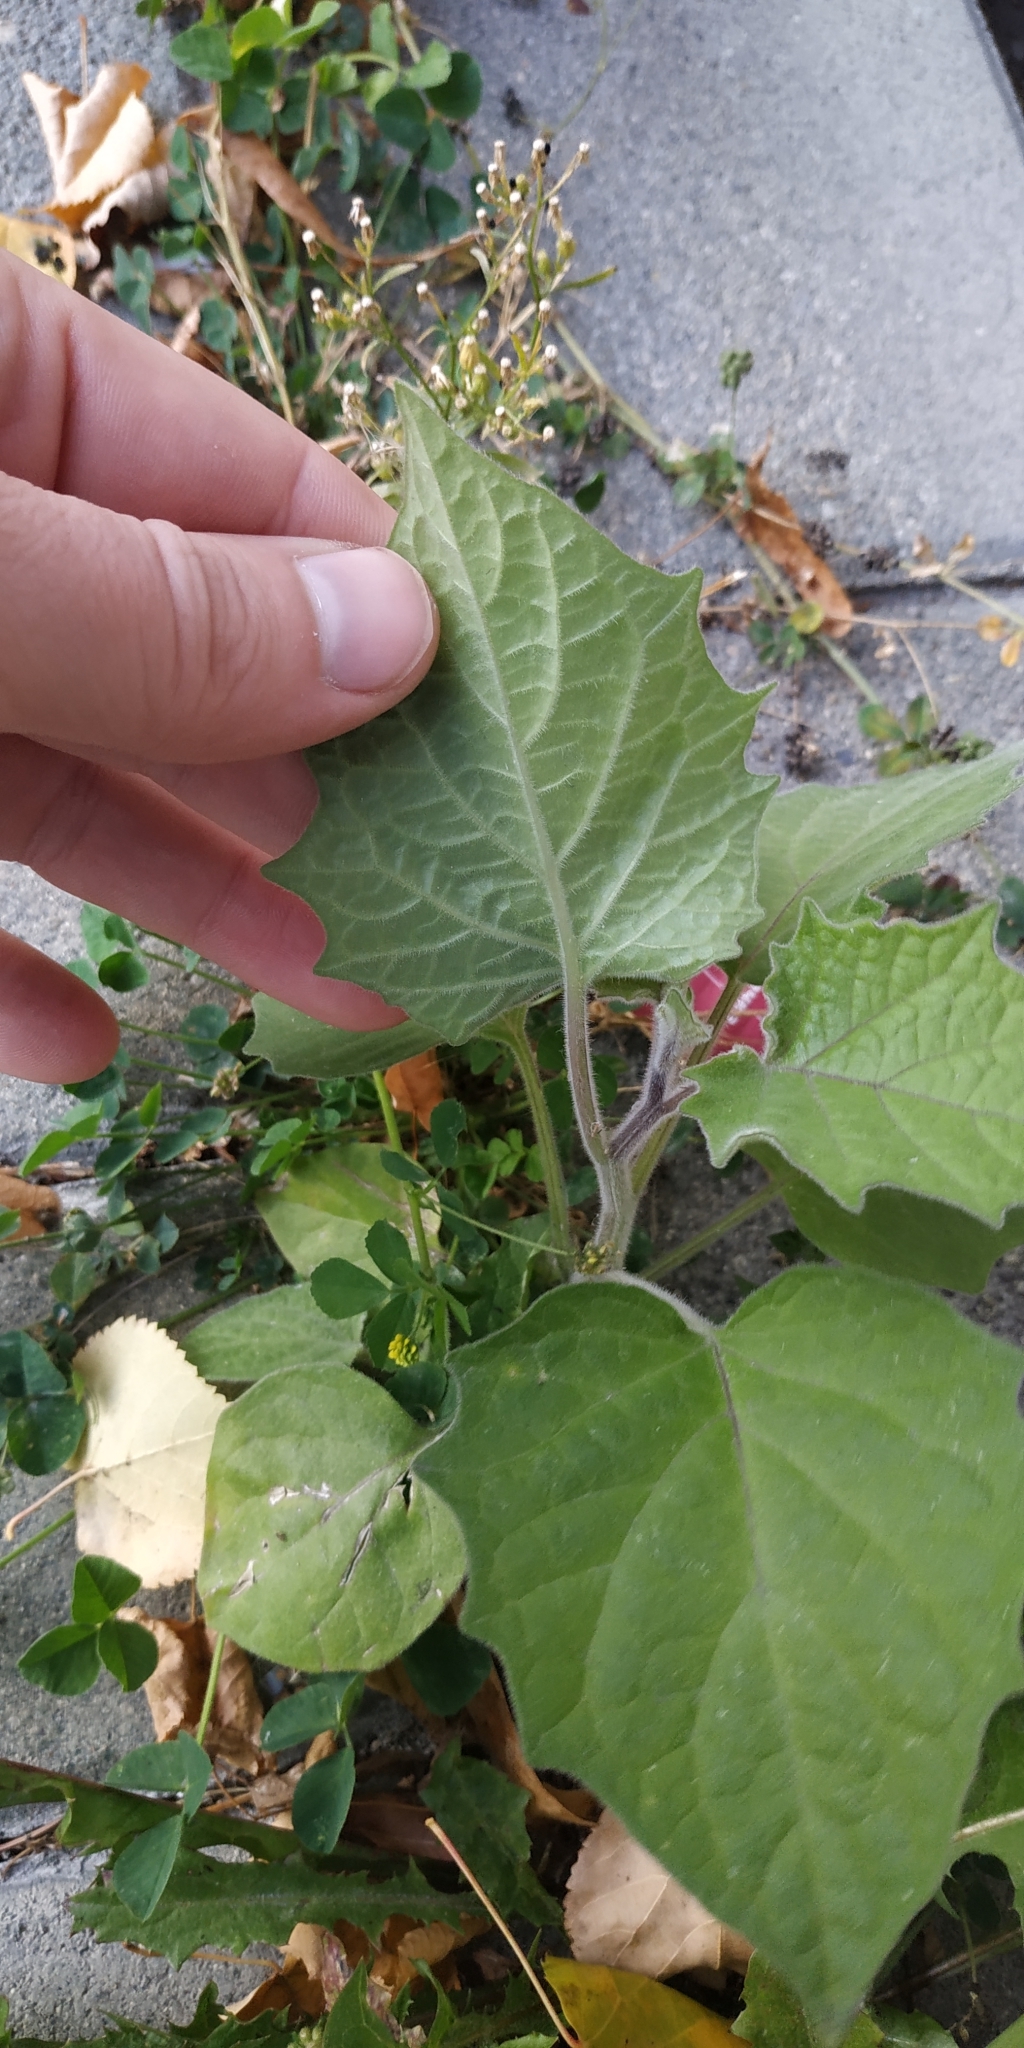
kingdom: Plantae
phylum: Tracheophyta
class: Magnoliopsida
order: Solanales
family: Solanaceae
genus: Physalis
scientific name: Physalis peruviana
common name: Cape-gooseberry
